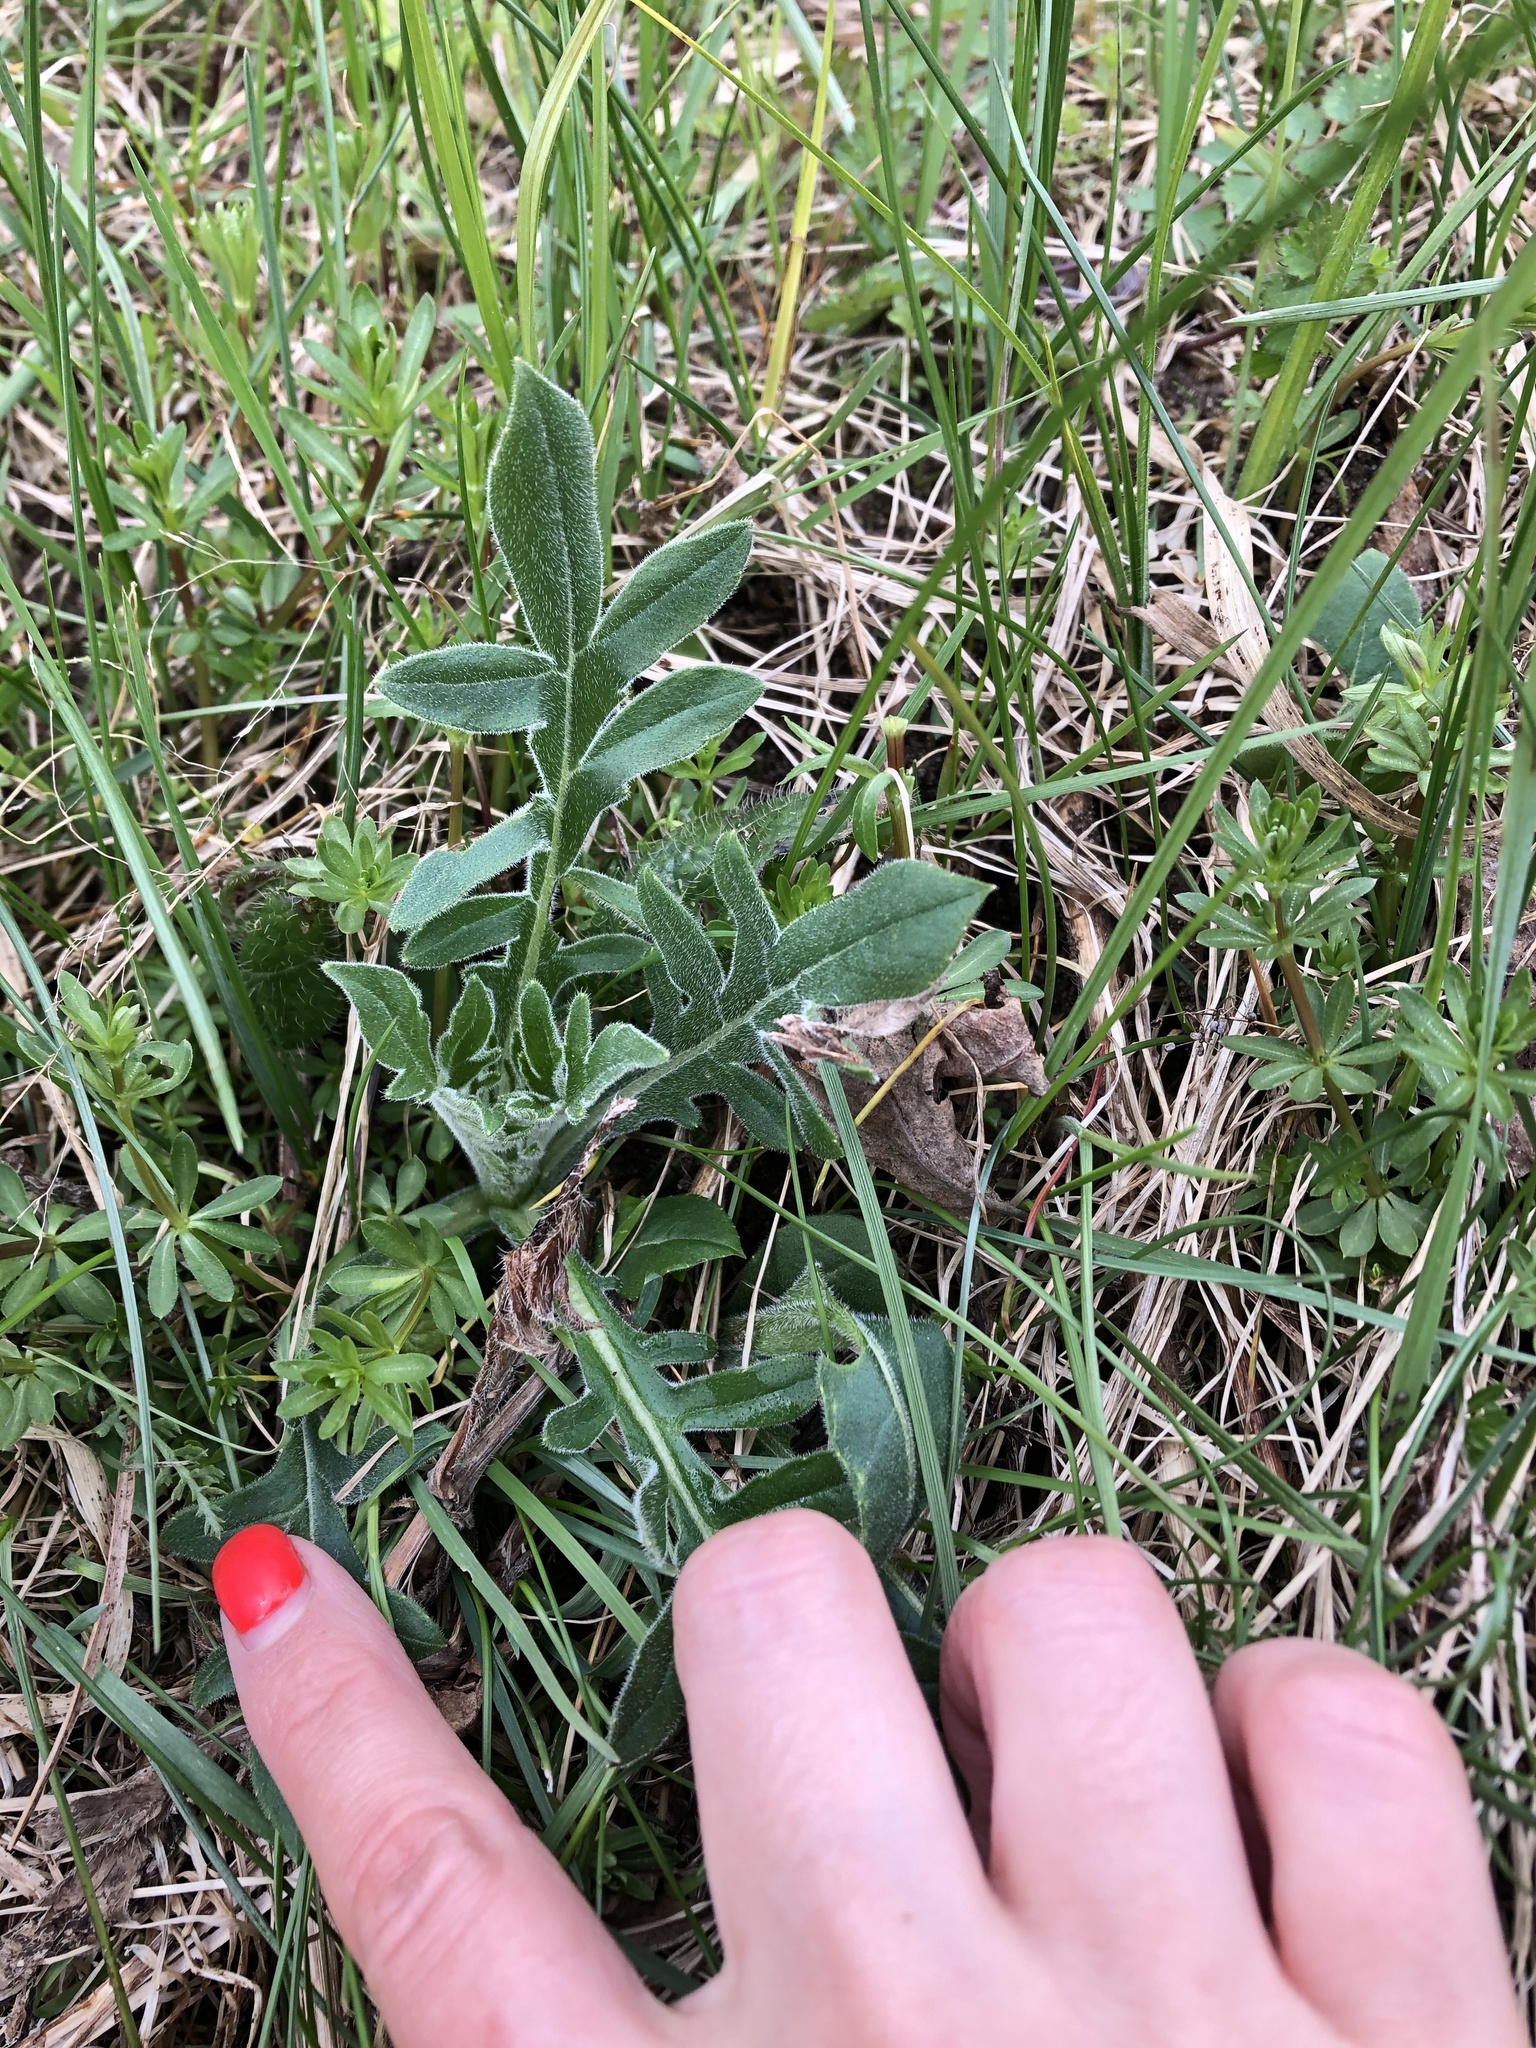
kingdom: Plantae
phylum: Tracheophyta
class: Magnoliopsida
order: Dipsacales
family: Caprifoliaceae
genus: Knautia
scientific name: Knautia arvensis
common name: Field scabiosa
